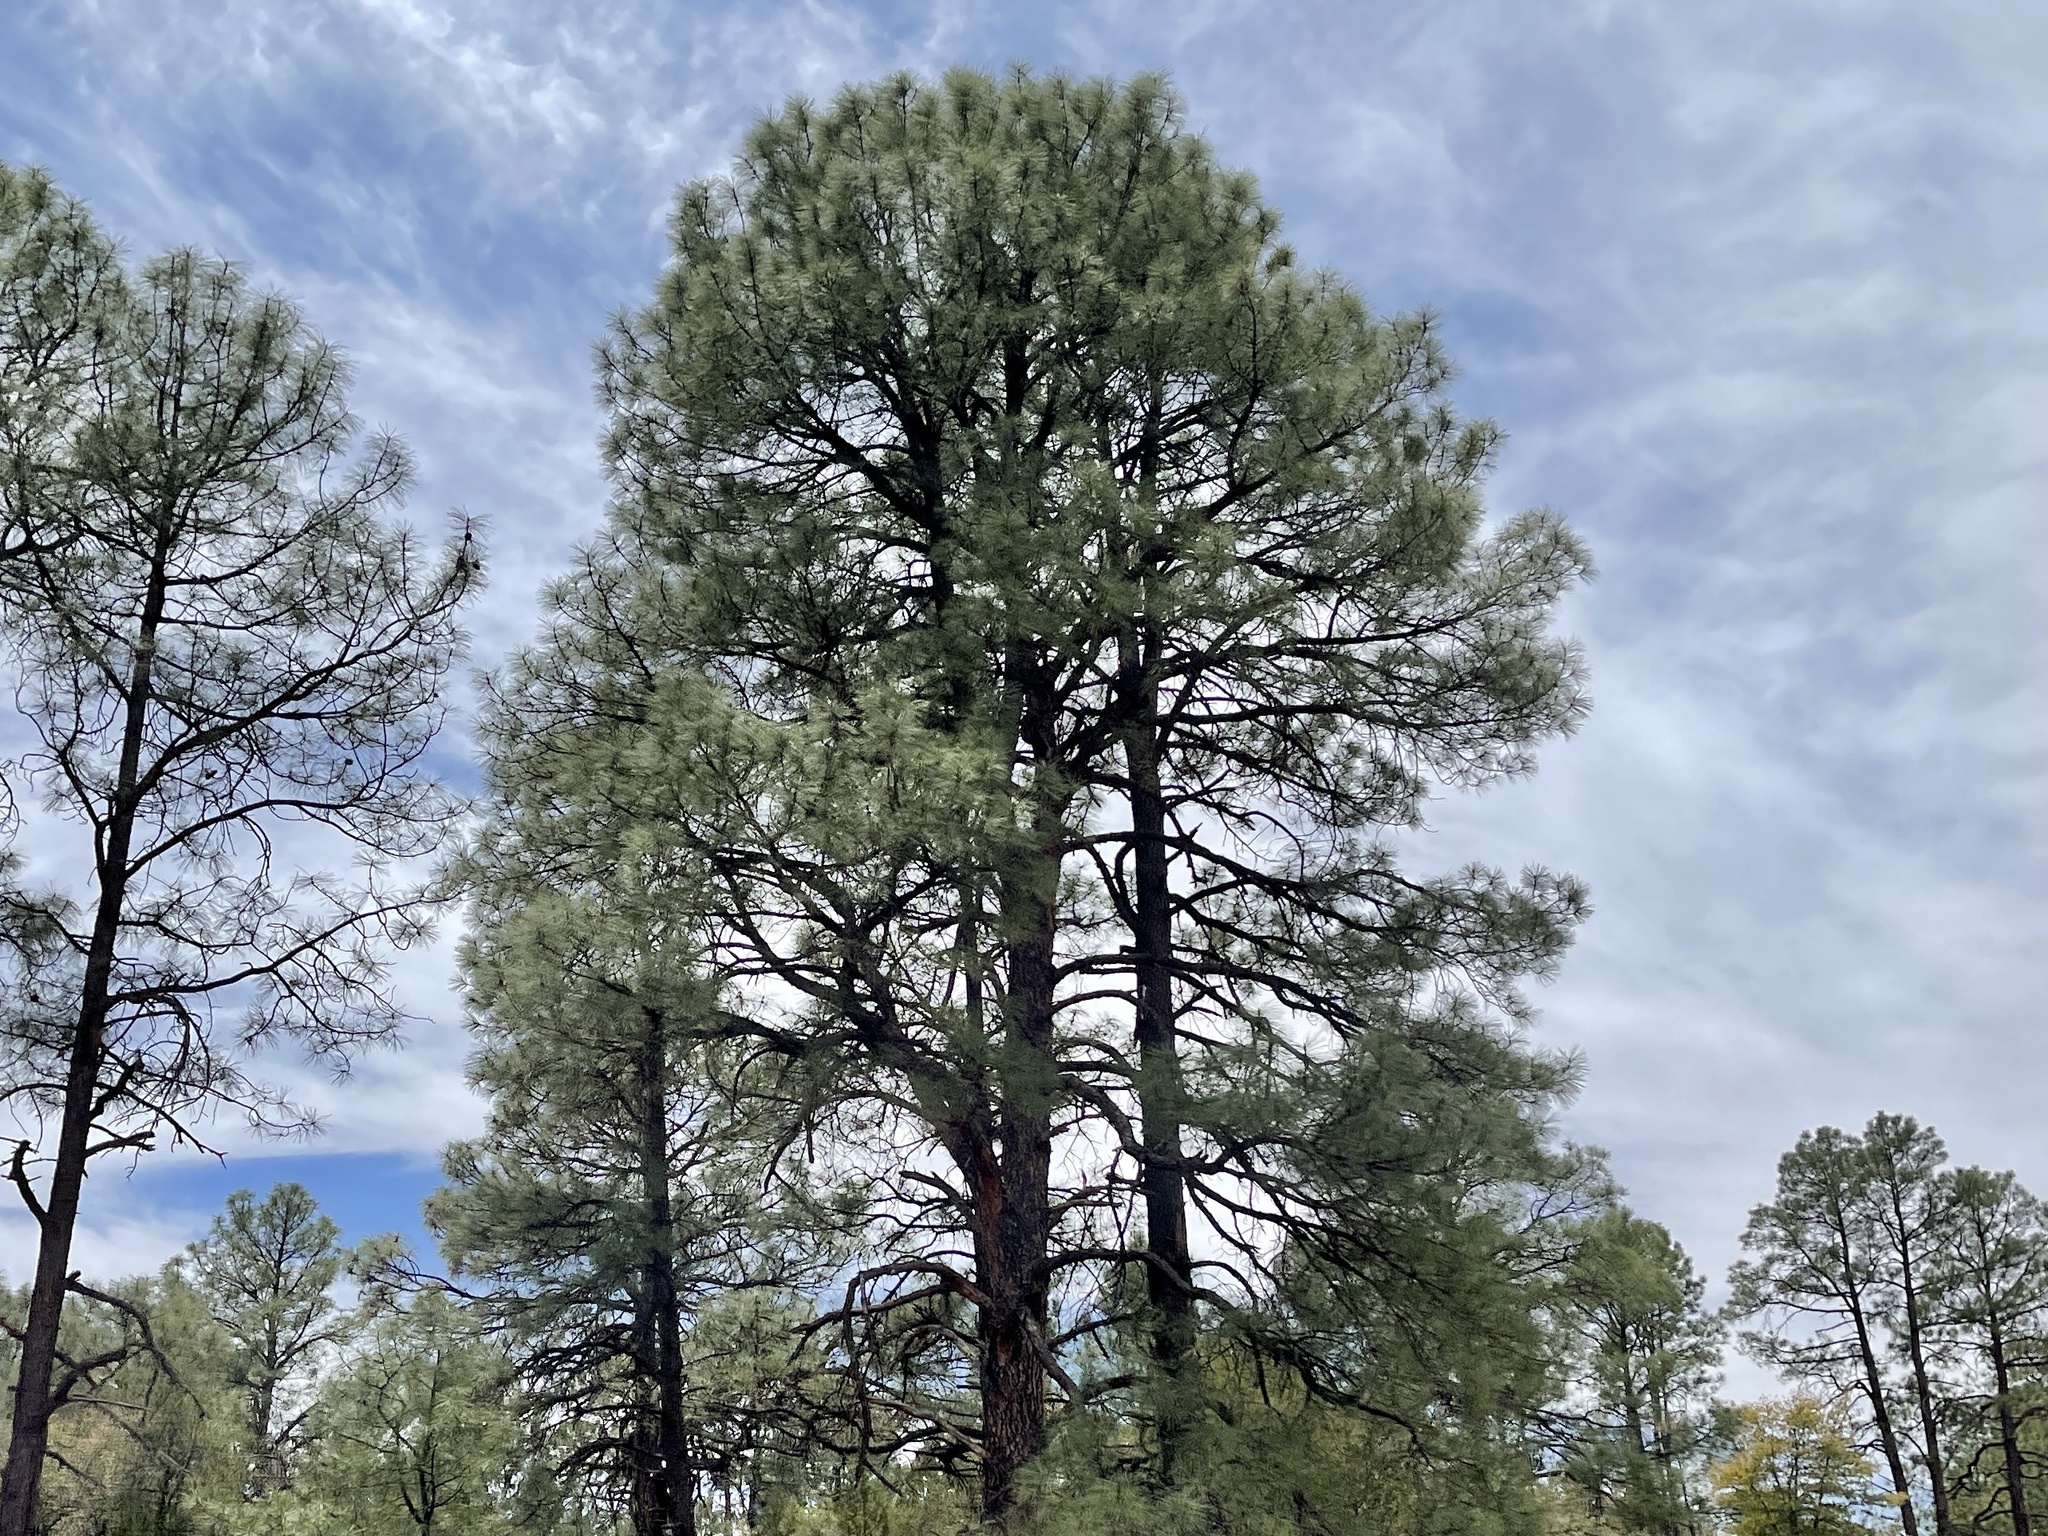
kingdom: Plantae
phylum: Tracheophyta
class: Pinopsida
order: Pinales
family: Pinaceae
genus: Pinus
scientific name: Pinus ponderosa
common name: Western yellow-pine
